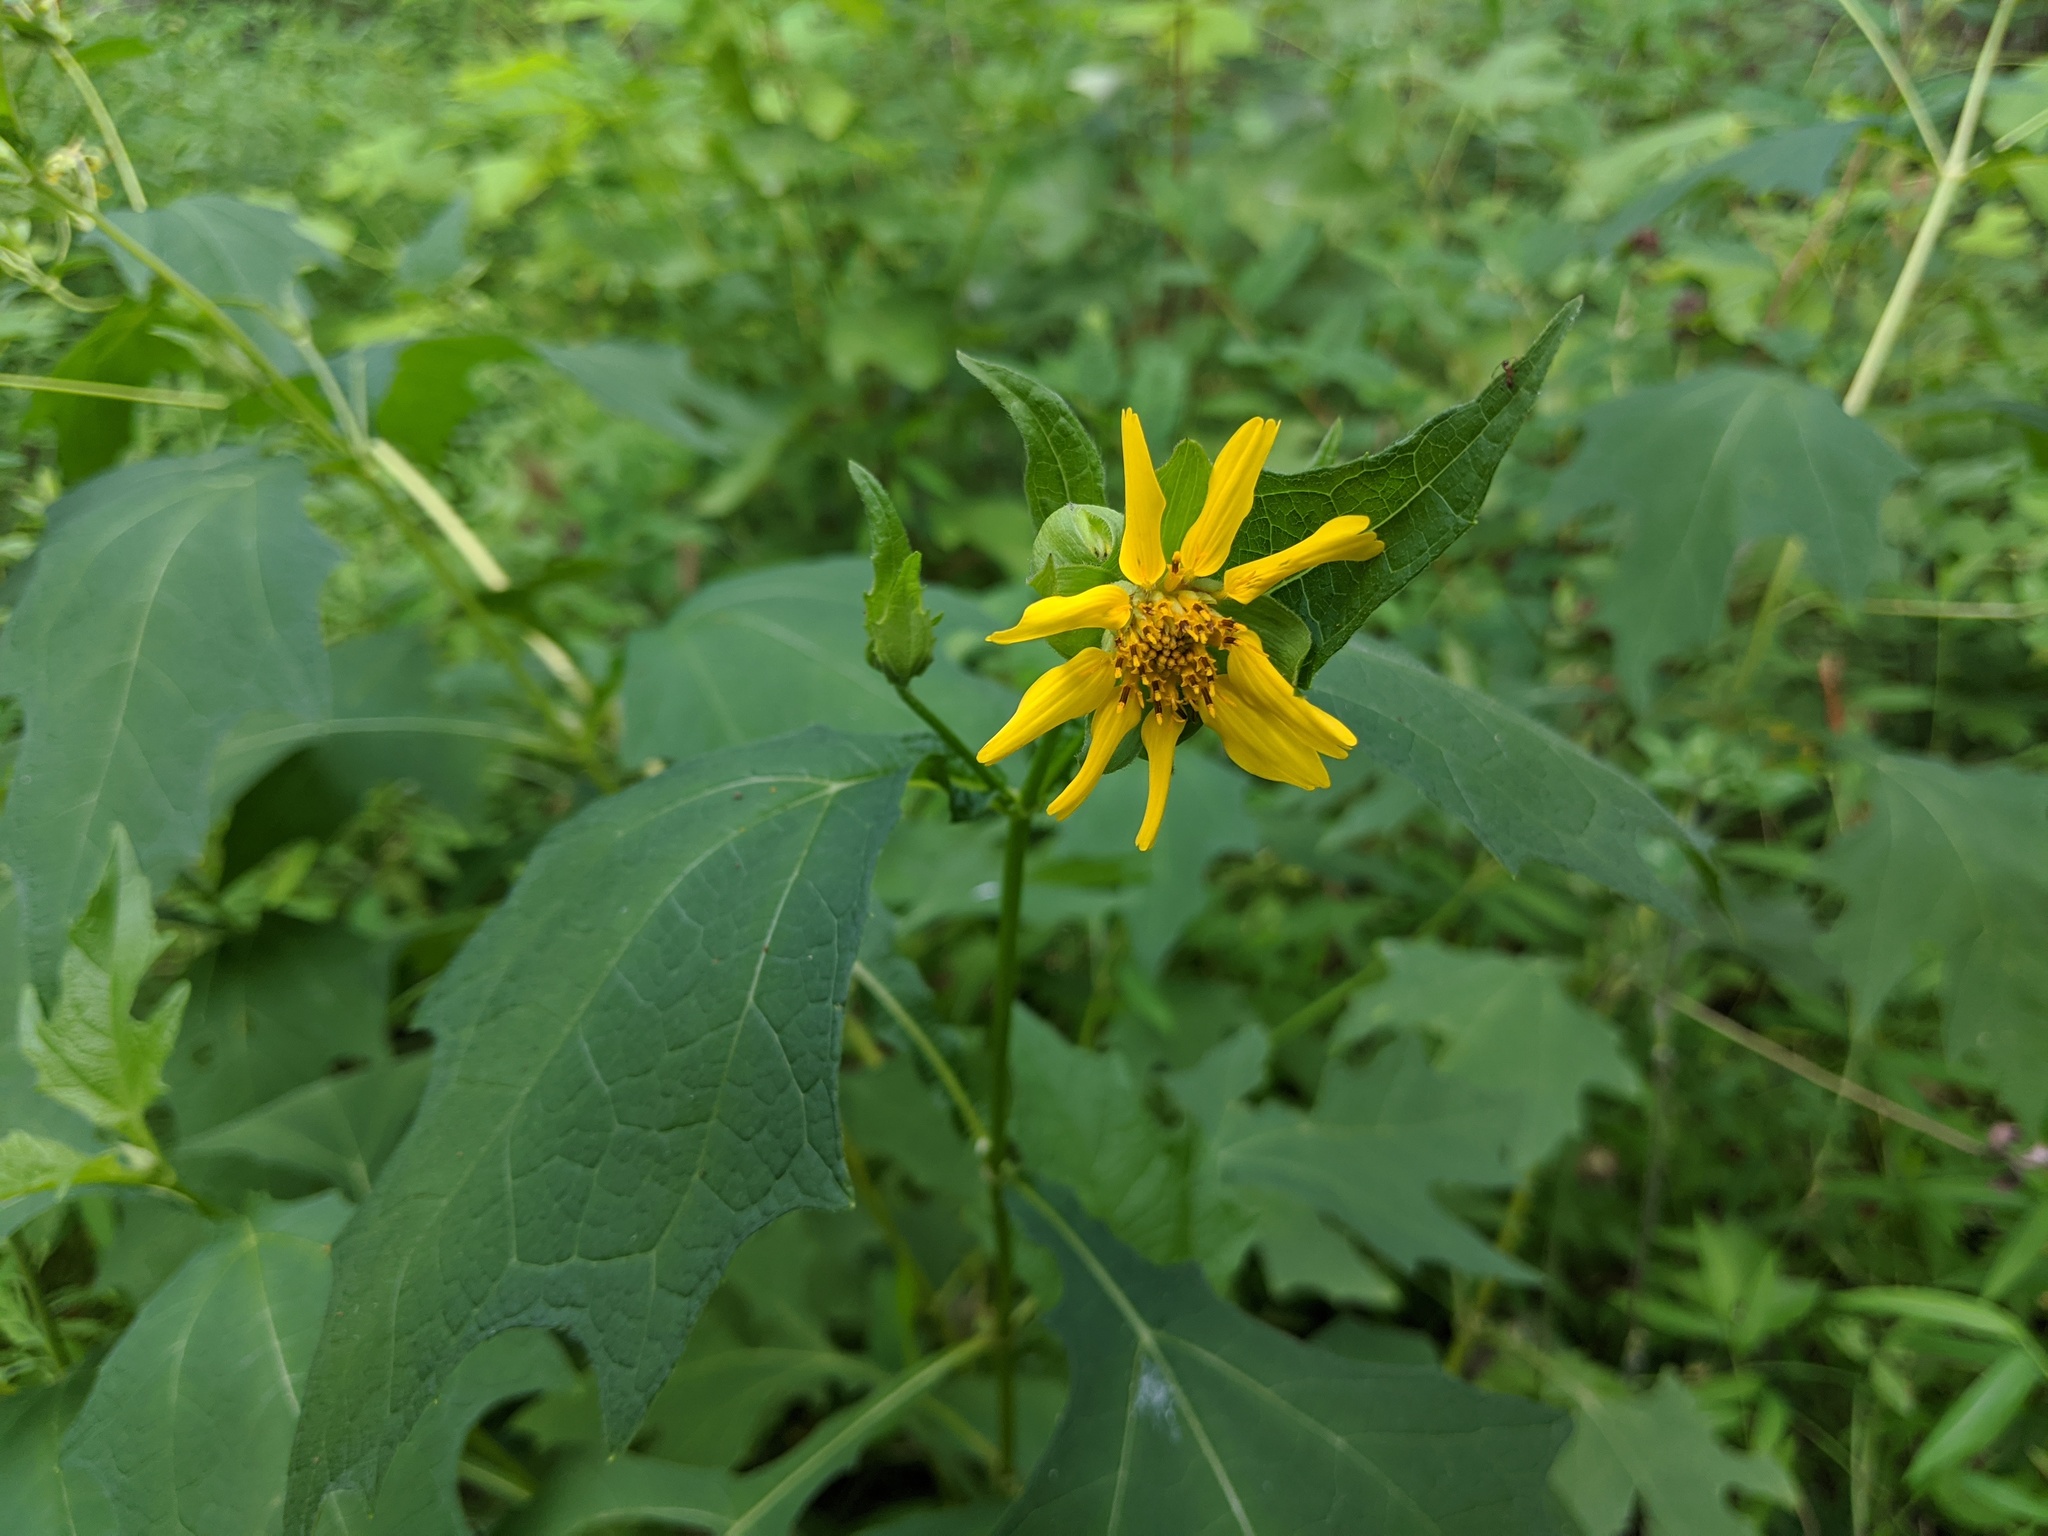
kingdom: Plantae
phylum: Tracheophyta
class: Magnoliopsida
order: Asterales
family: Asteraceae
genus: Smallanthus
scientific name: Smallanthus uvedalia
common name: Bear's-foot
